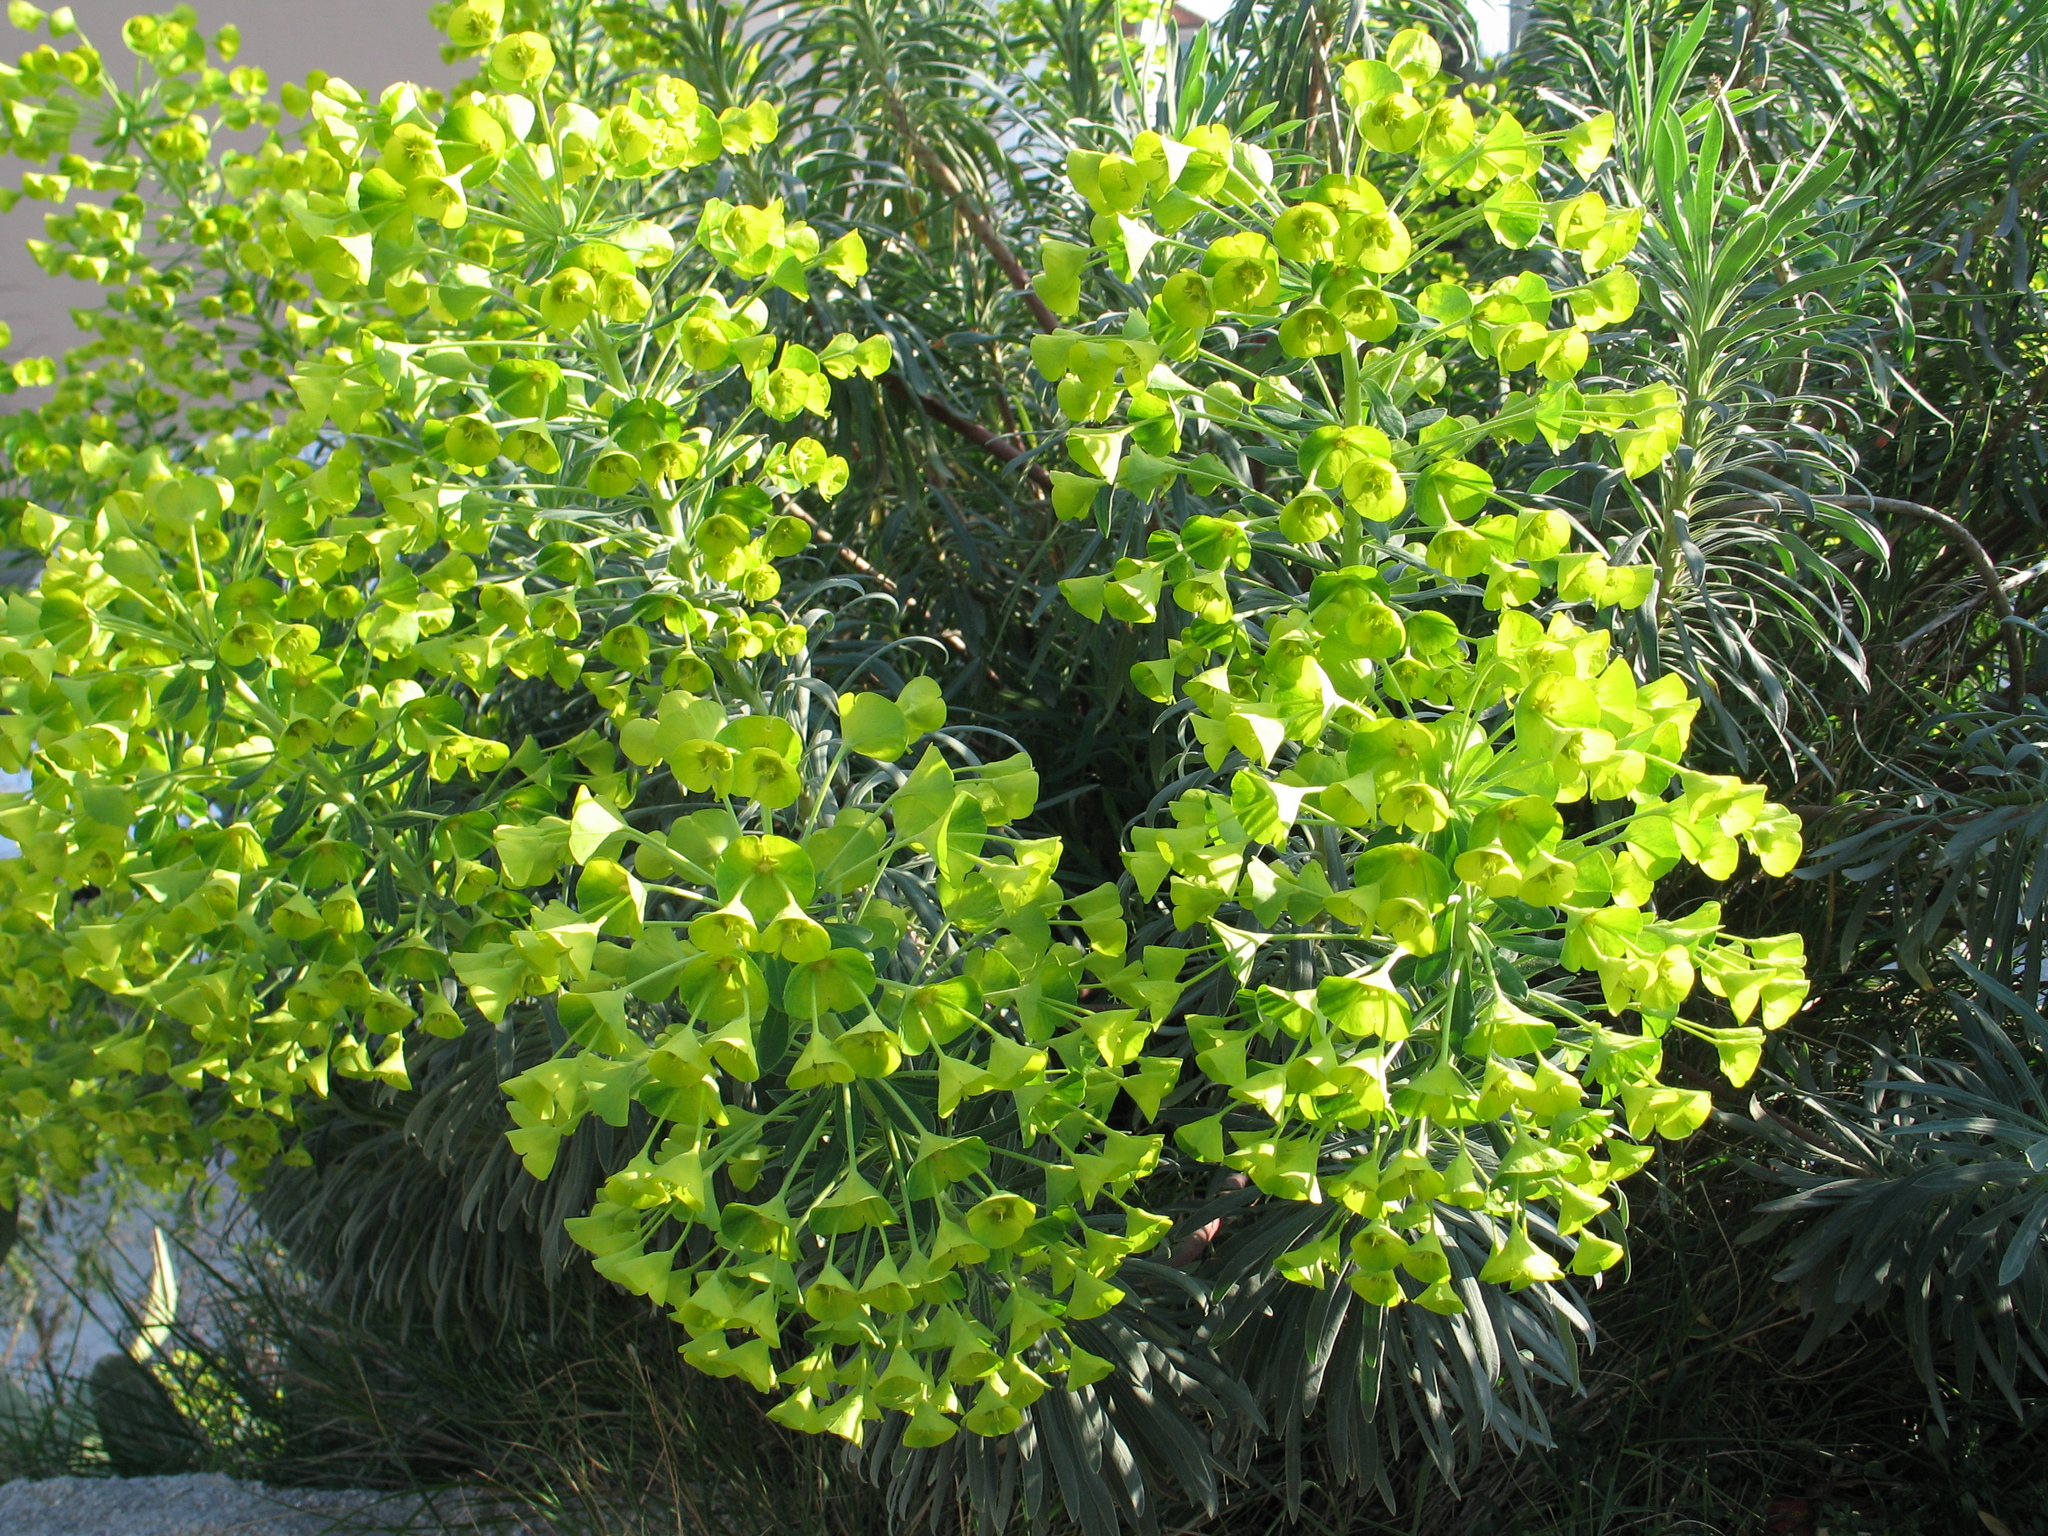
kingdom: Plantae
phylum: Tracheophyta
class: Magnoliopsida
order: Malpighiales
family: Euphorbiaceae
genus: Euphorbia
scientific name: Euphorbia characias
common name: Mediterranean spurge
